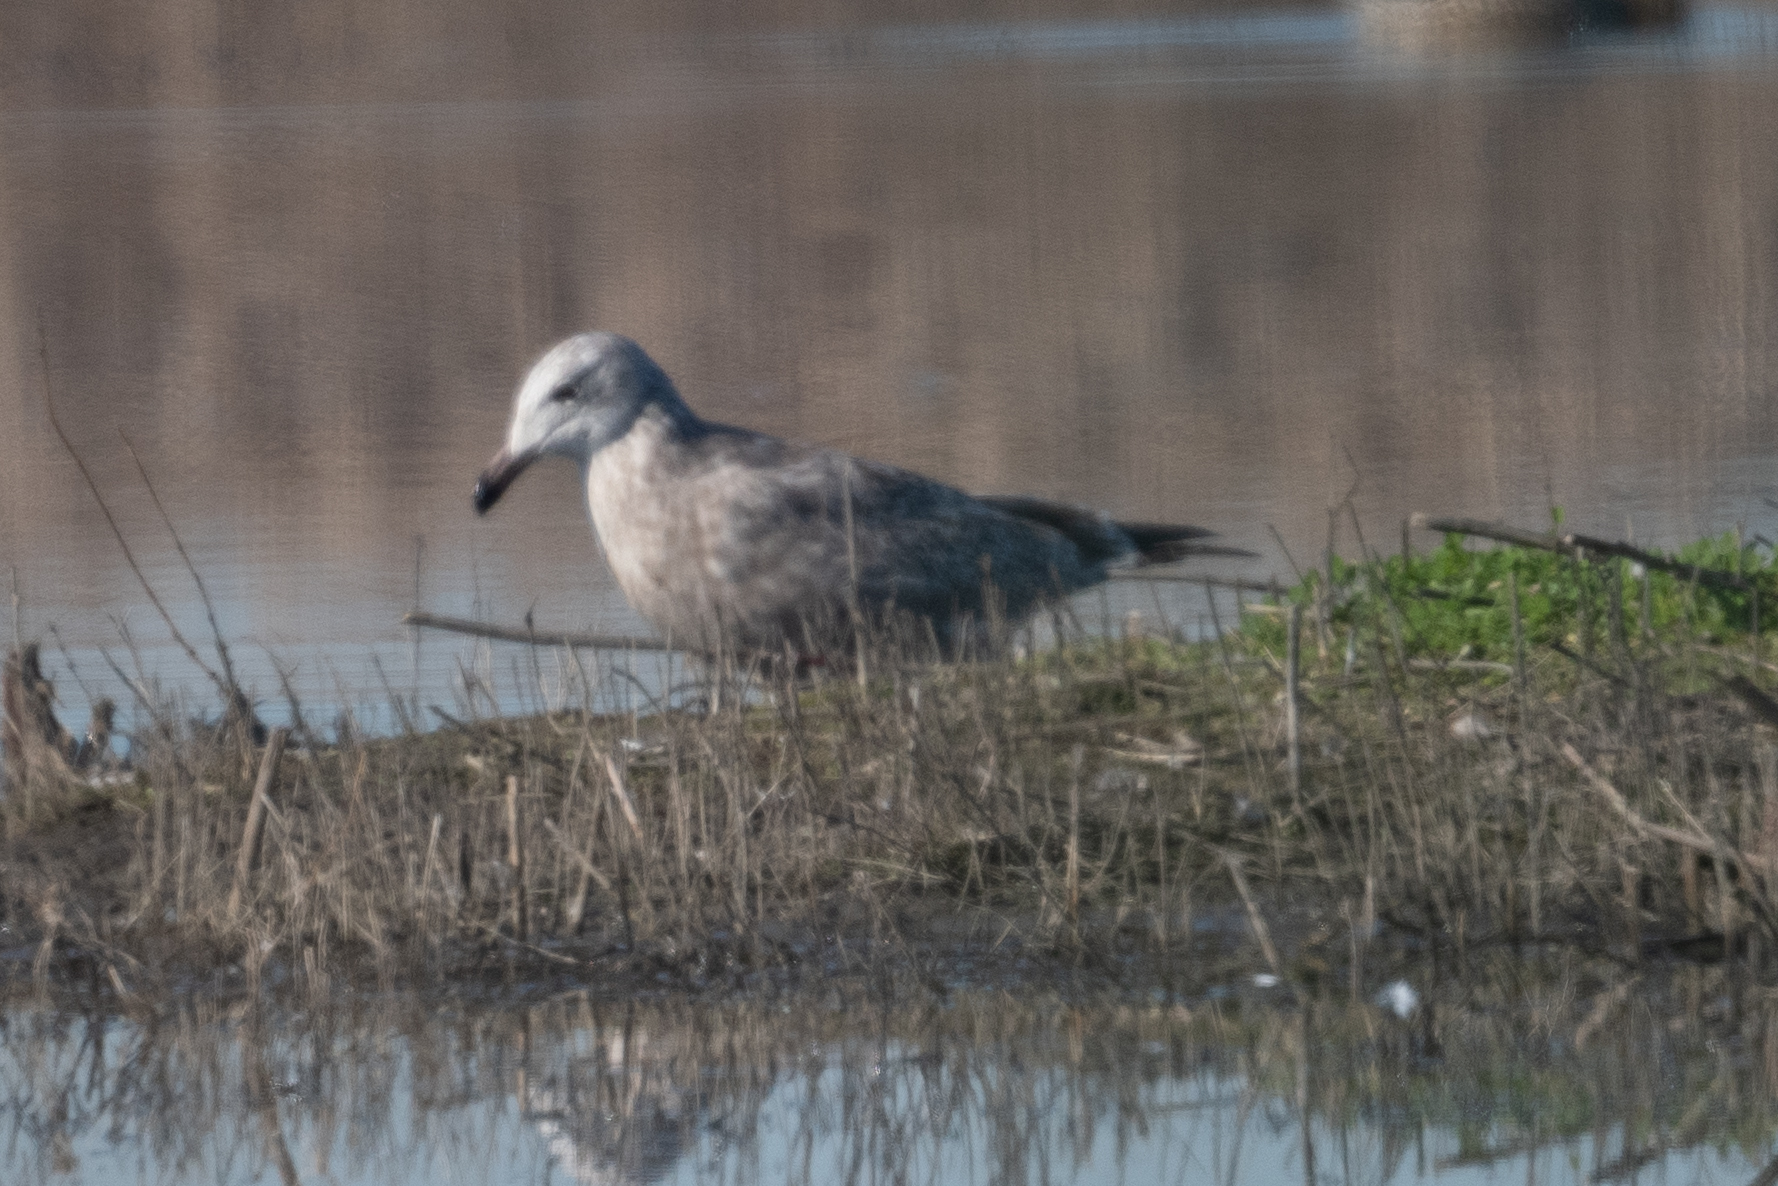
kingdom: Animalia
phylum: Chordata
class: Aves
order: Charadriiformes
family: Laridae
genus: Larus
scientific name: Larus argentatus
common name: Herring gull
